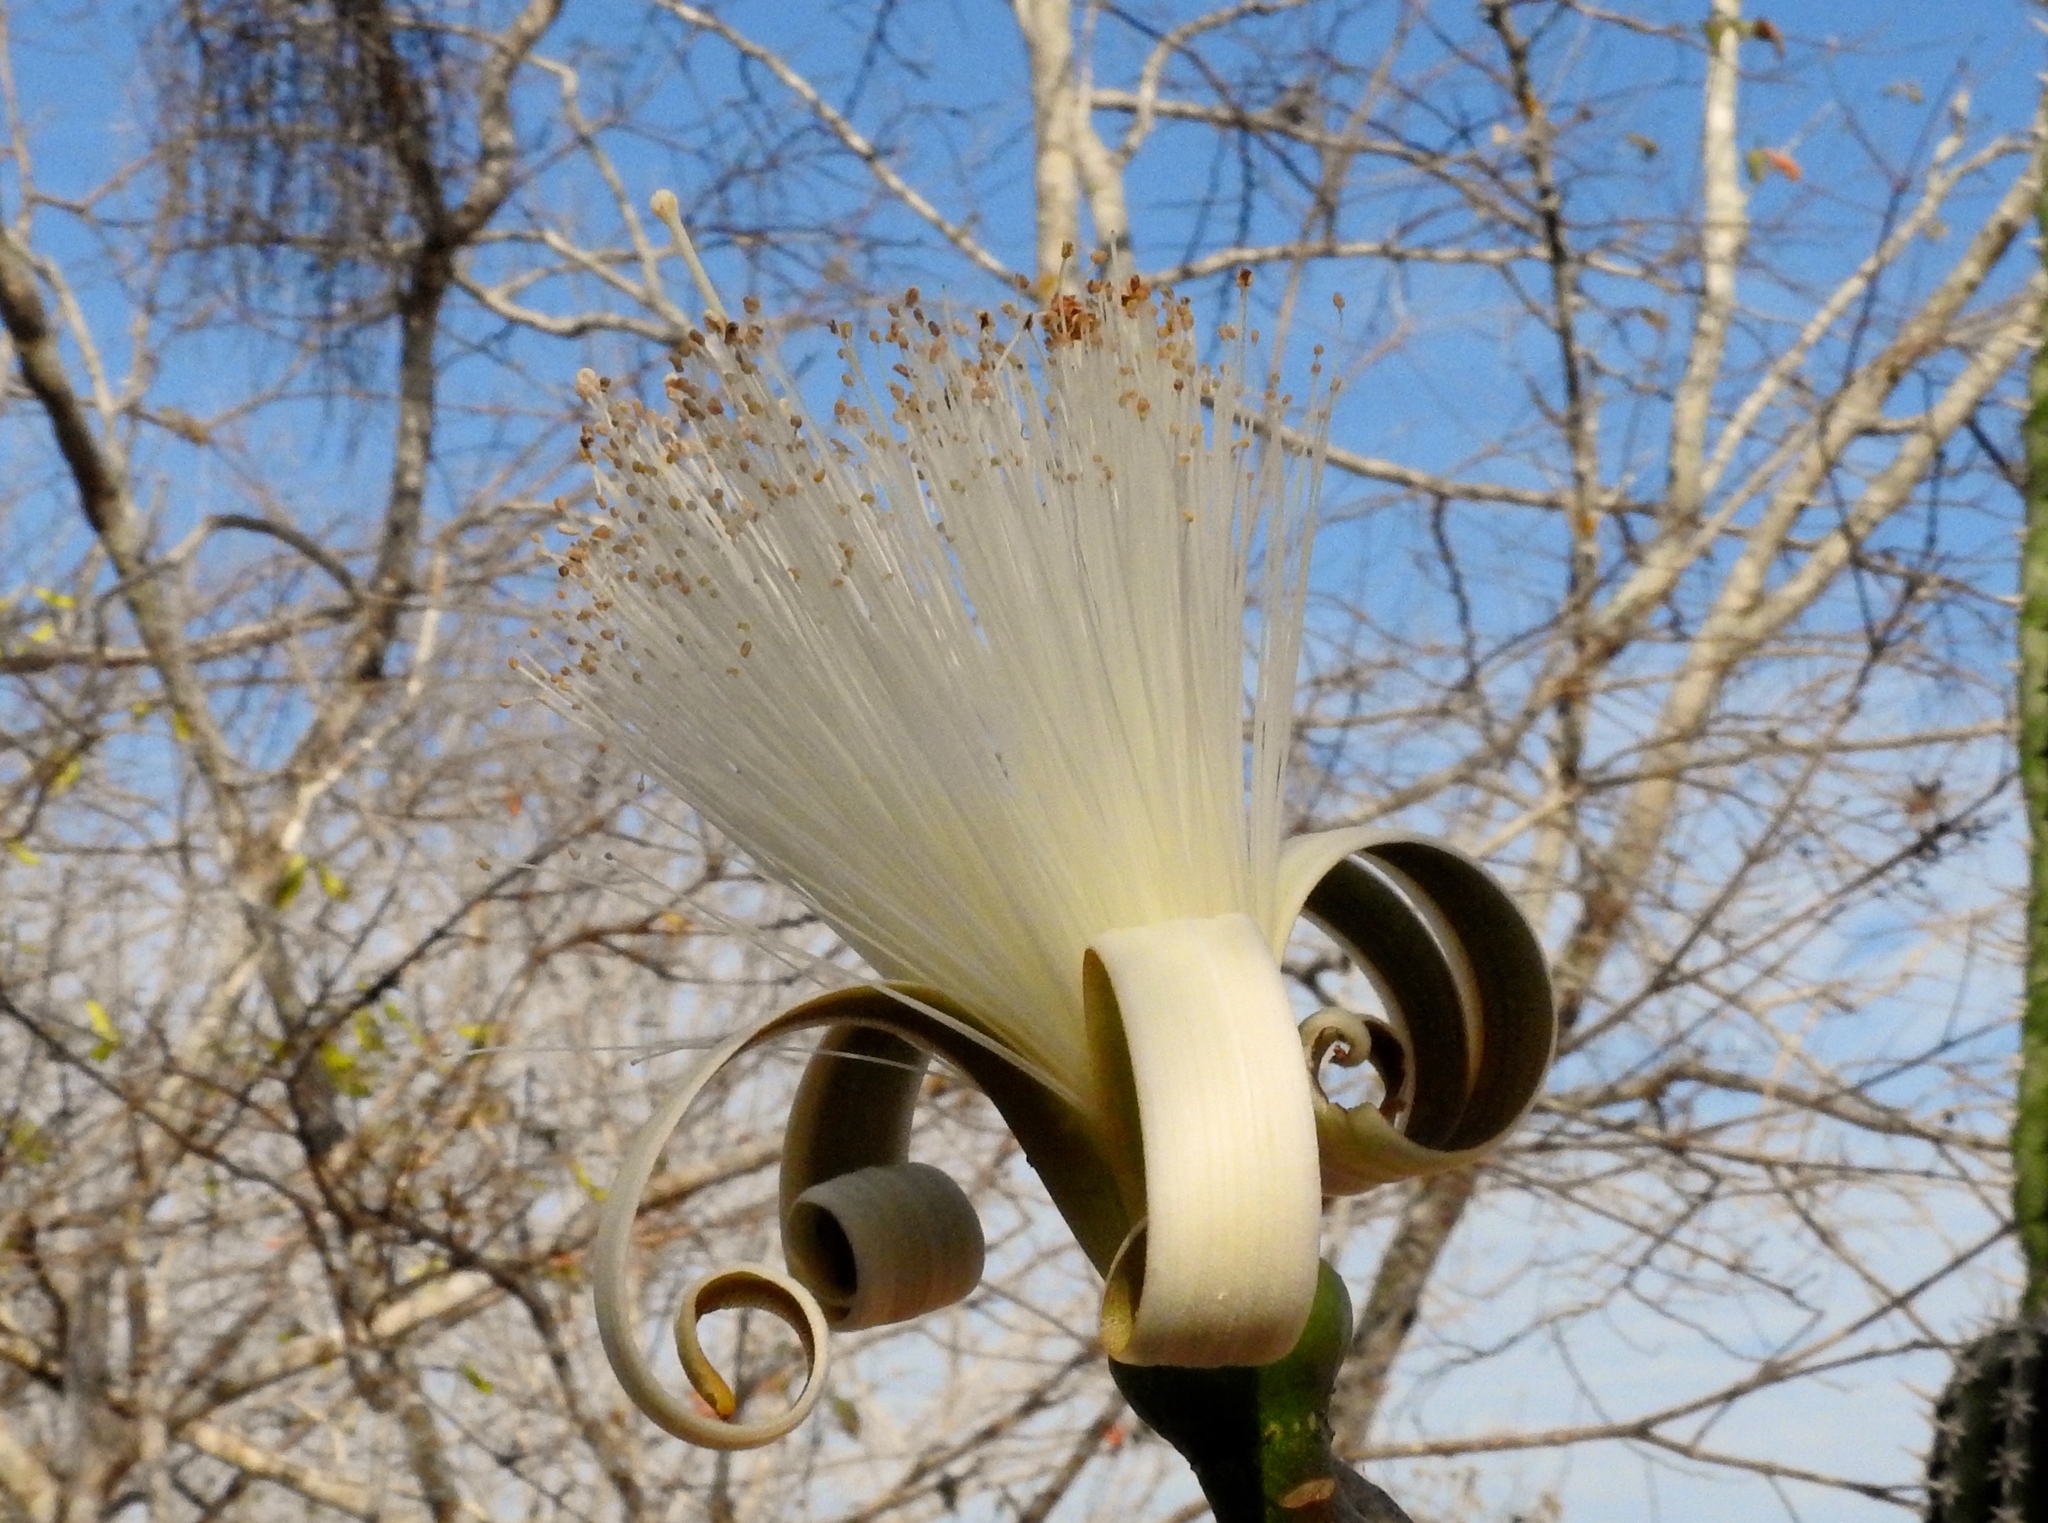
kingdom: Plantae
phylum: Tracheophyta
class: Magnoliopsida
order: Malvales
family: Malvaceae
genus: Pseudobombax
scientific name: Pseudobombax palmeri
